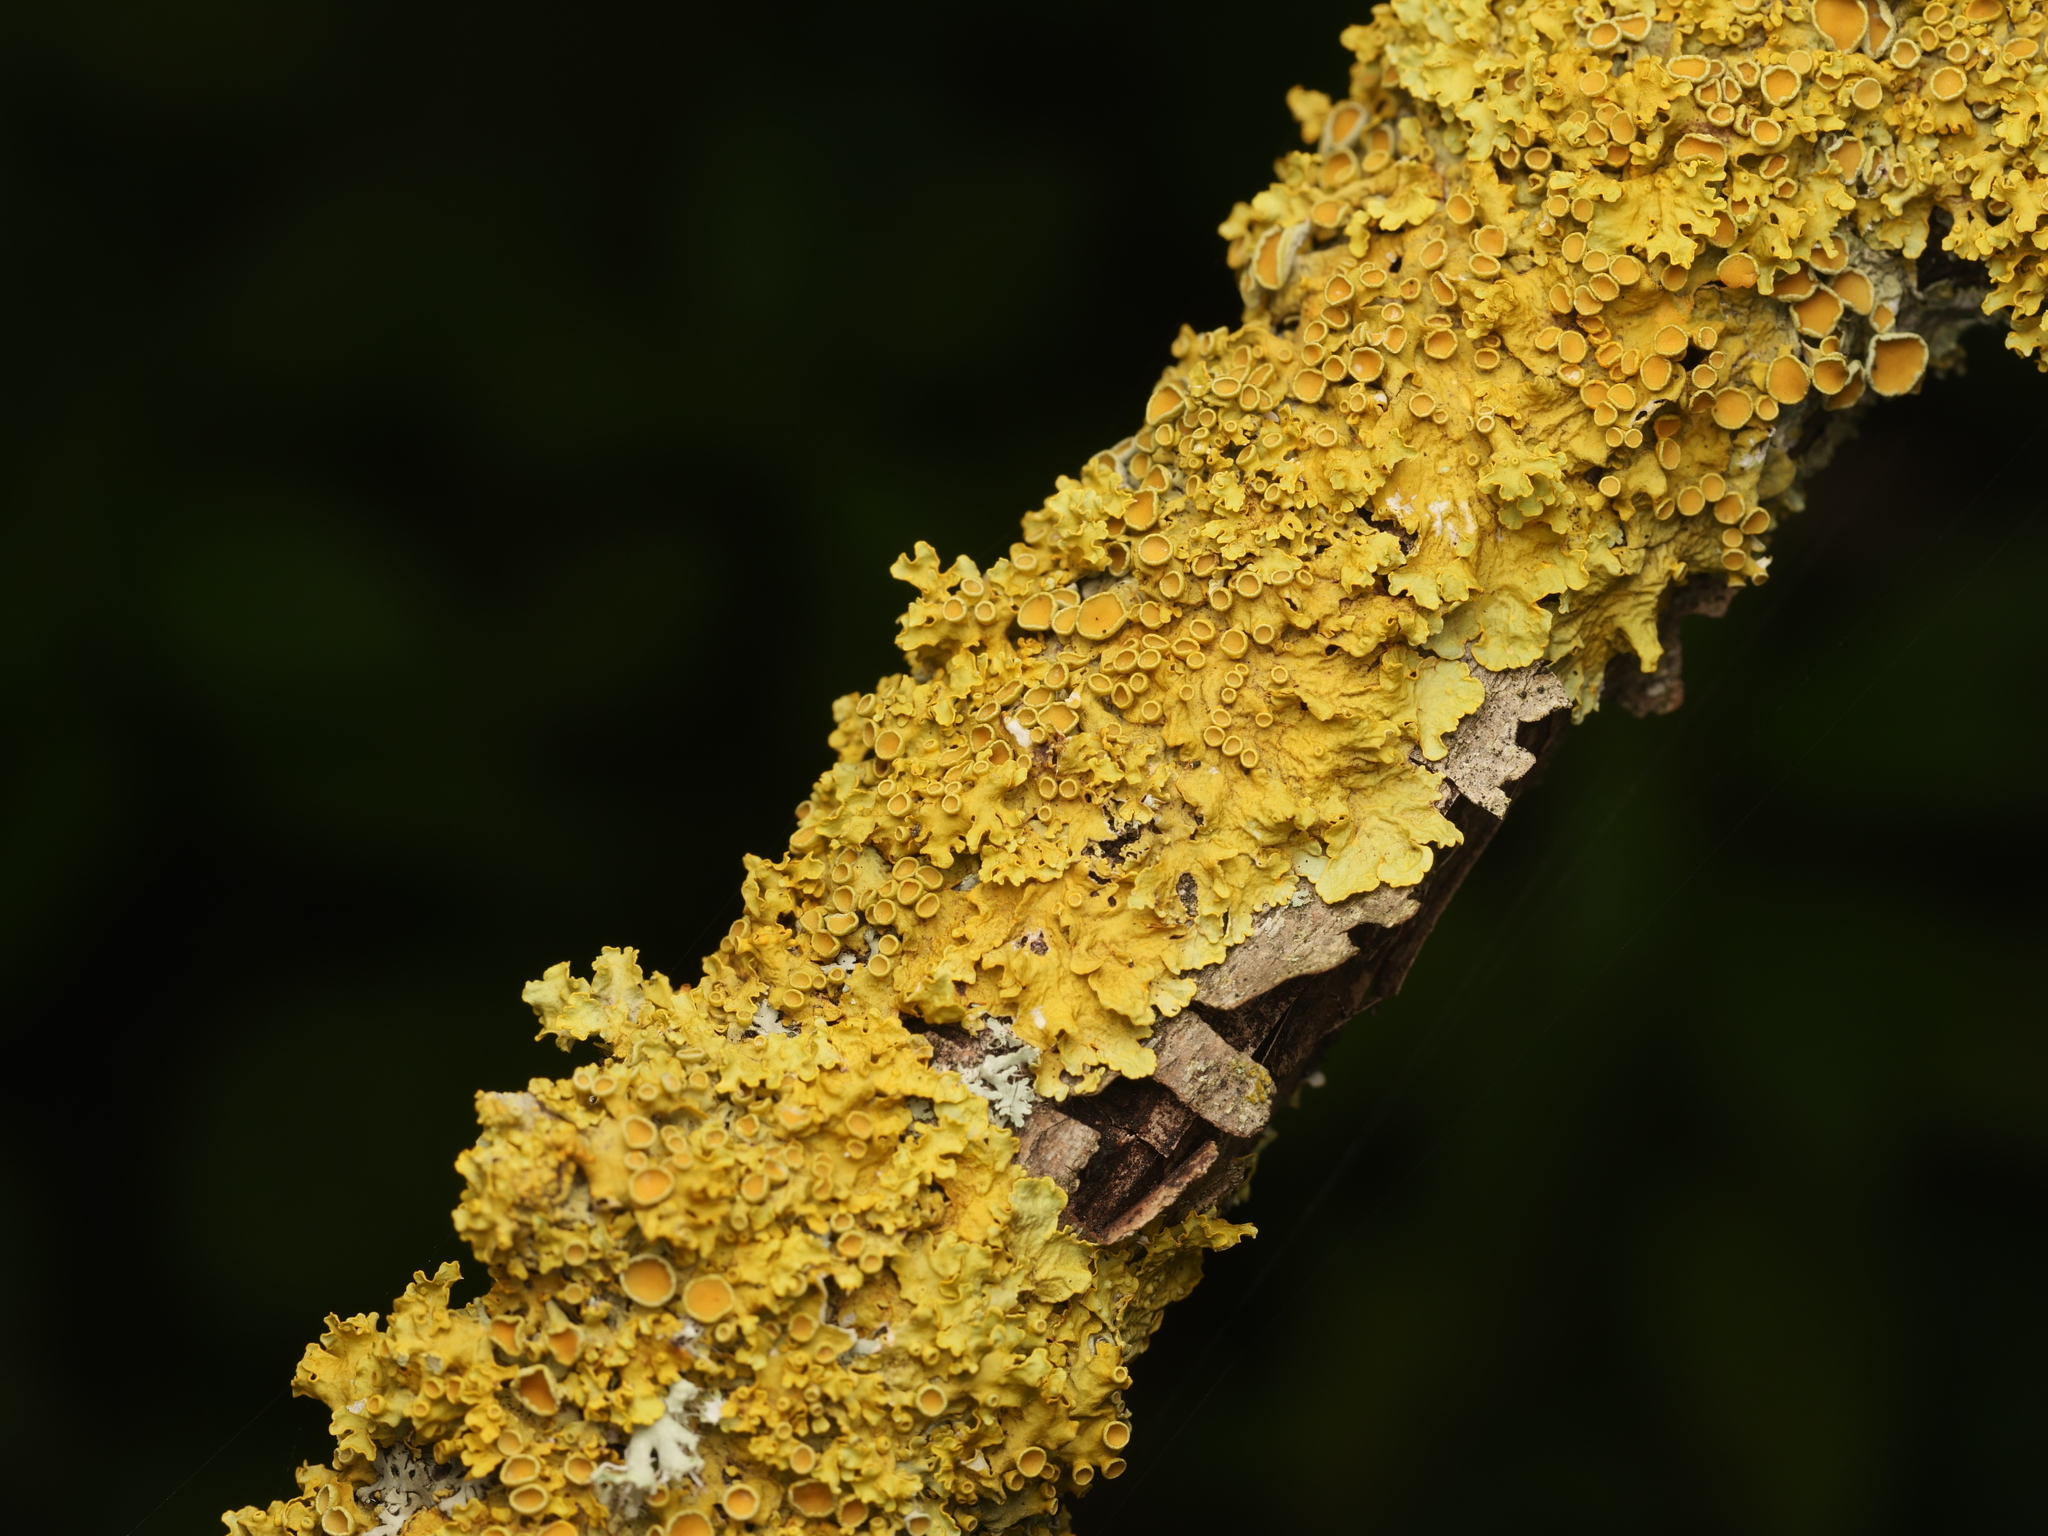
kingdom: Fungi
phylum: Ascomycota
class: Lecanoromycetes
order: Teloschistales
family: Teloschistaceae
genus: Xanthoria
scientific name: Xanthoria parietina
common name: Common orange lichen
